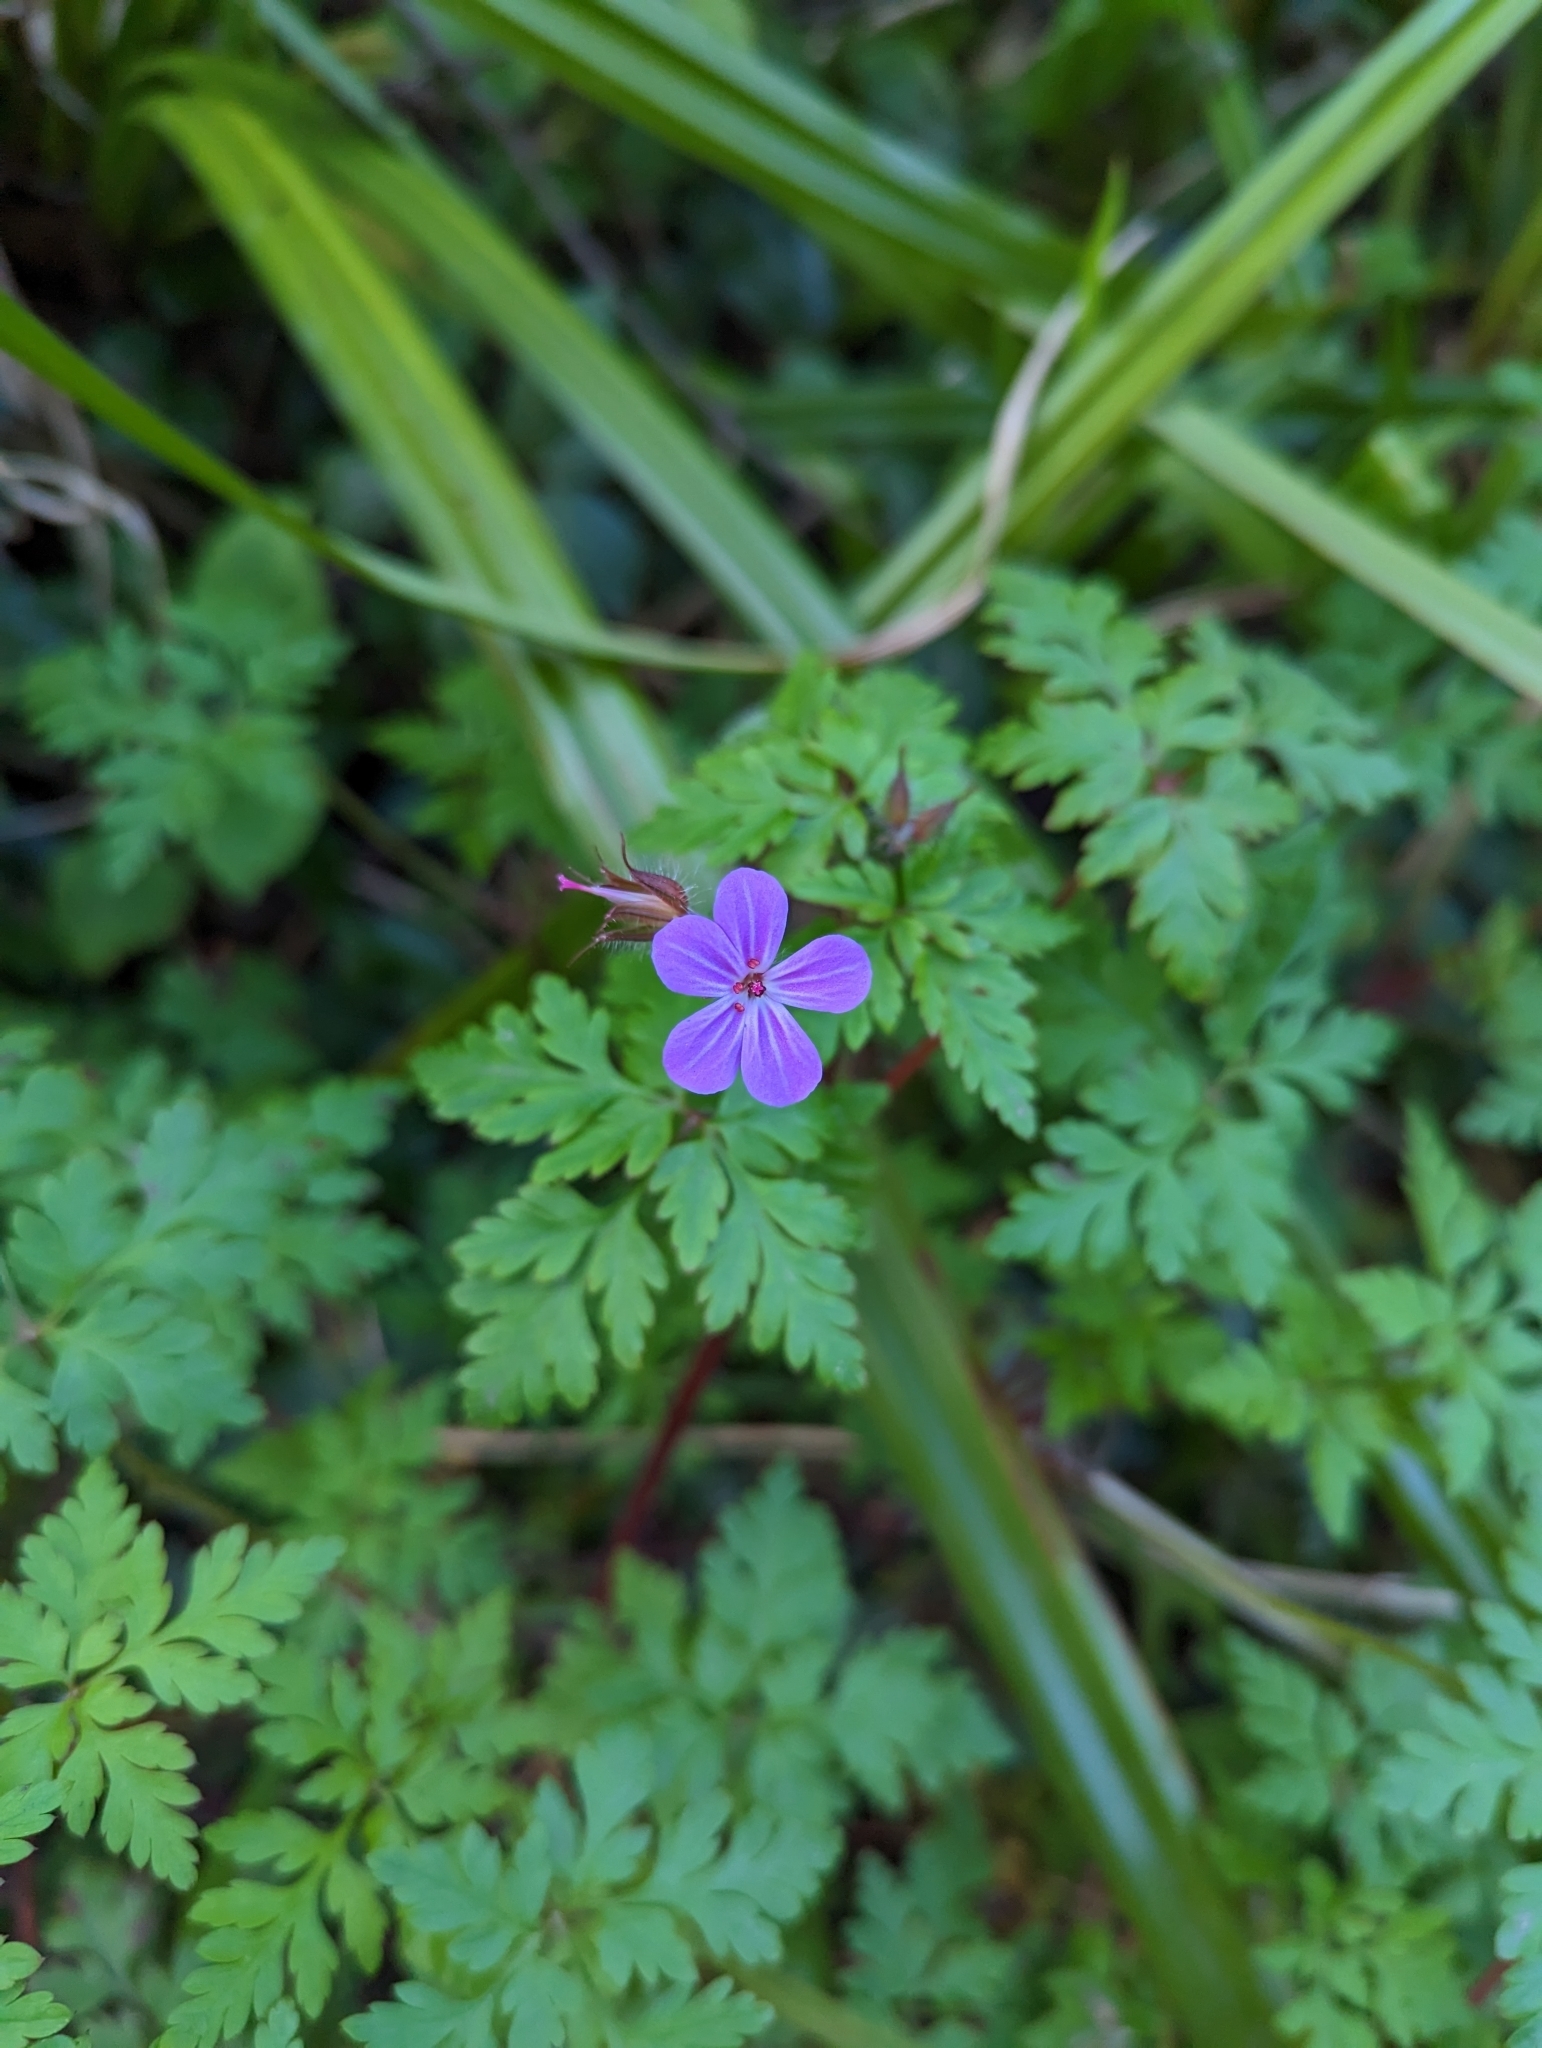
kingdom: Plantae
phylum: Tracheophyta
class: Magnoliopsida
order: Geraniales
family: Geraniaceae
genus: Geranium
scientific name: Geranium robertianum
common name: Herb-robert
